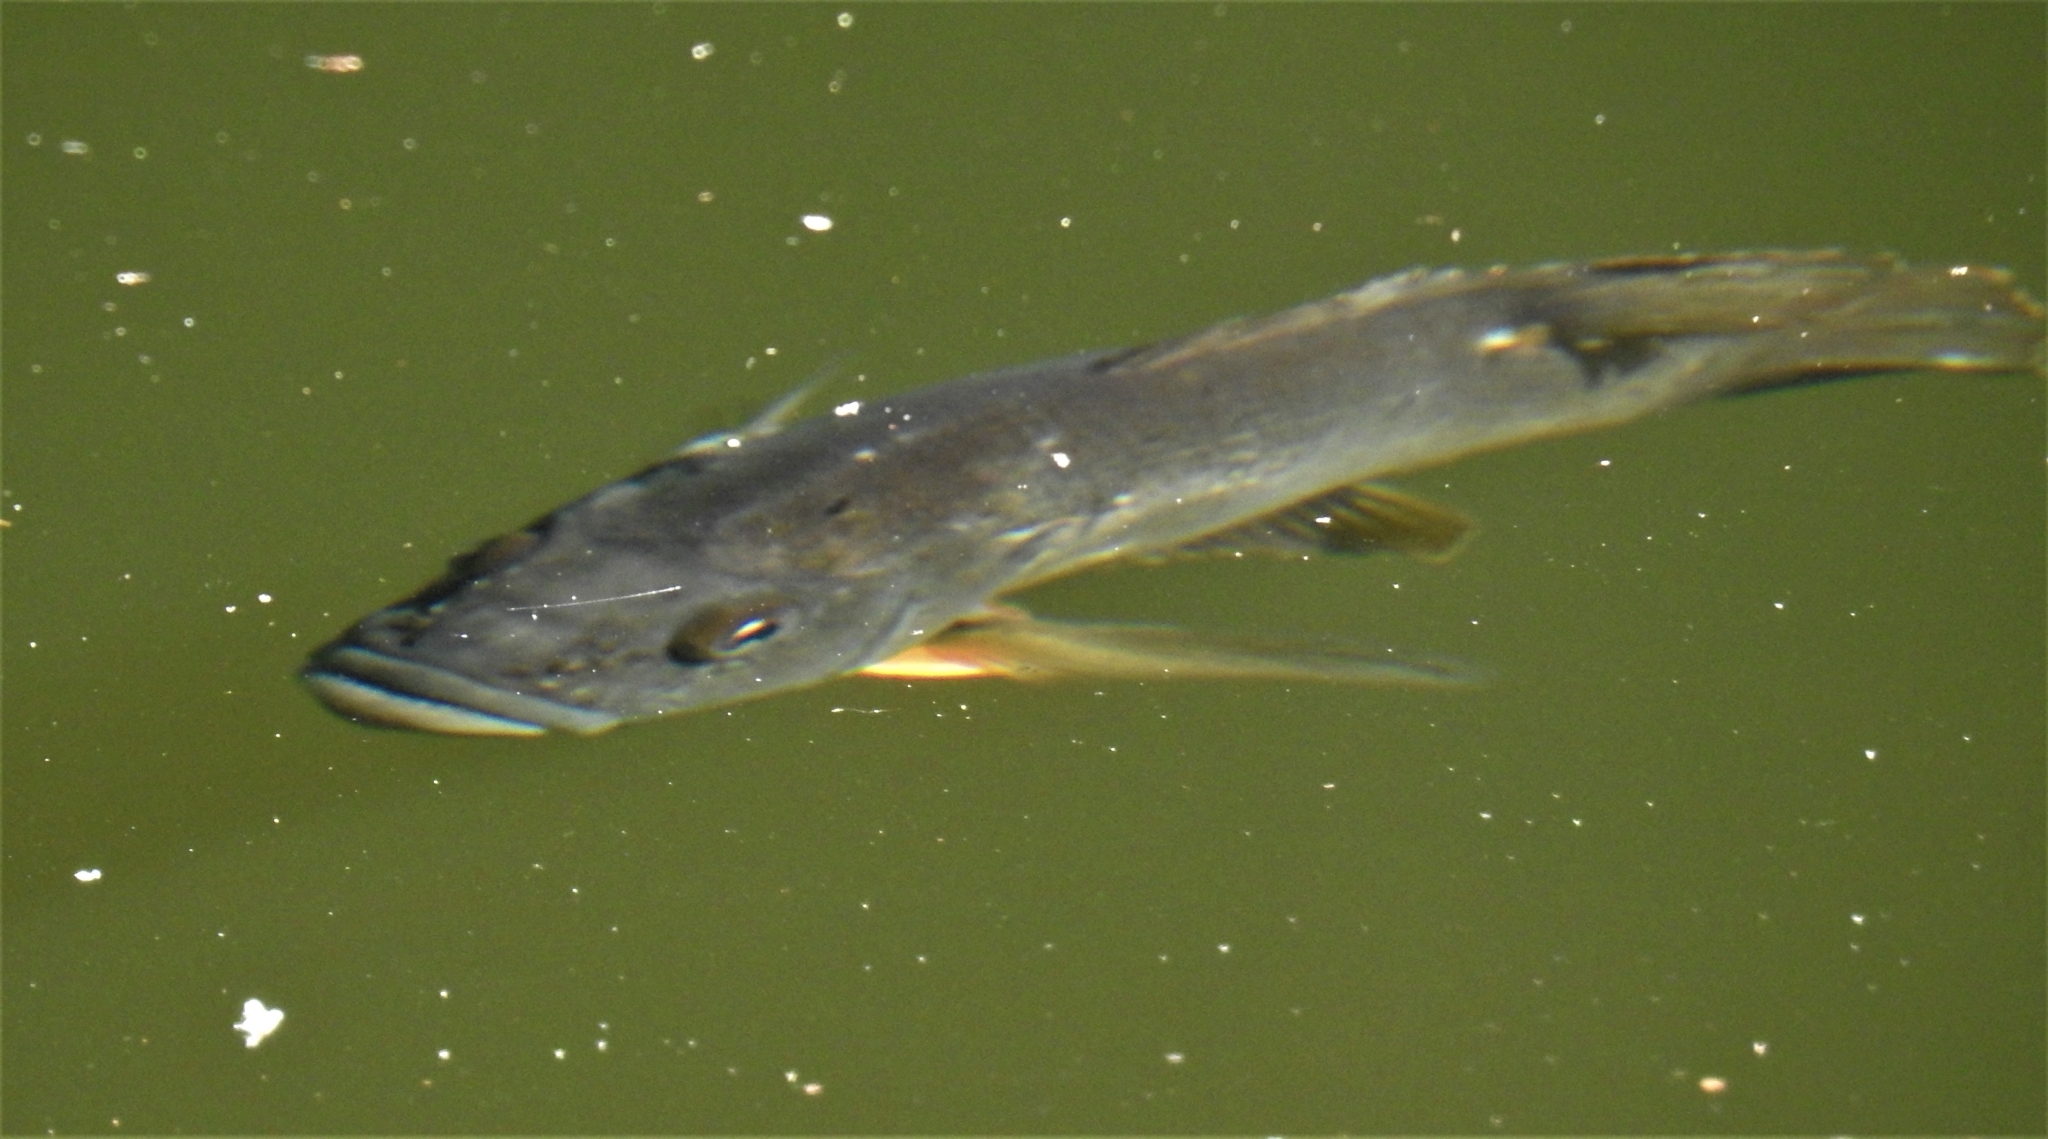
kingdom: Animalia
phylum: Chordata
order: Perciformes
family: Centrarchidae
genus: Lepomis
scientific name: Lepomis cyanellus
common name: Green sunfish
